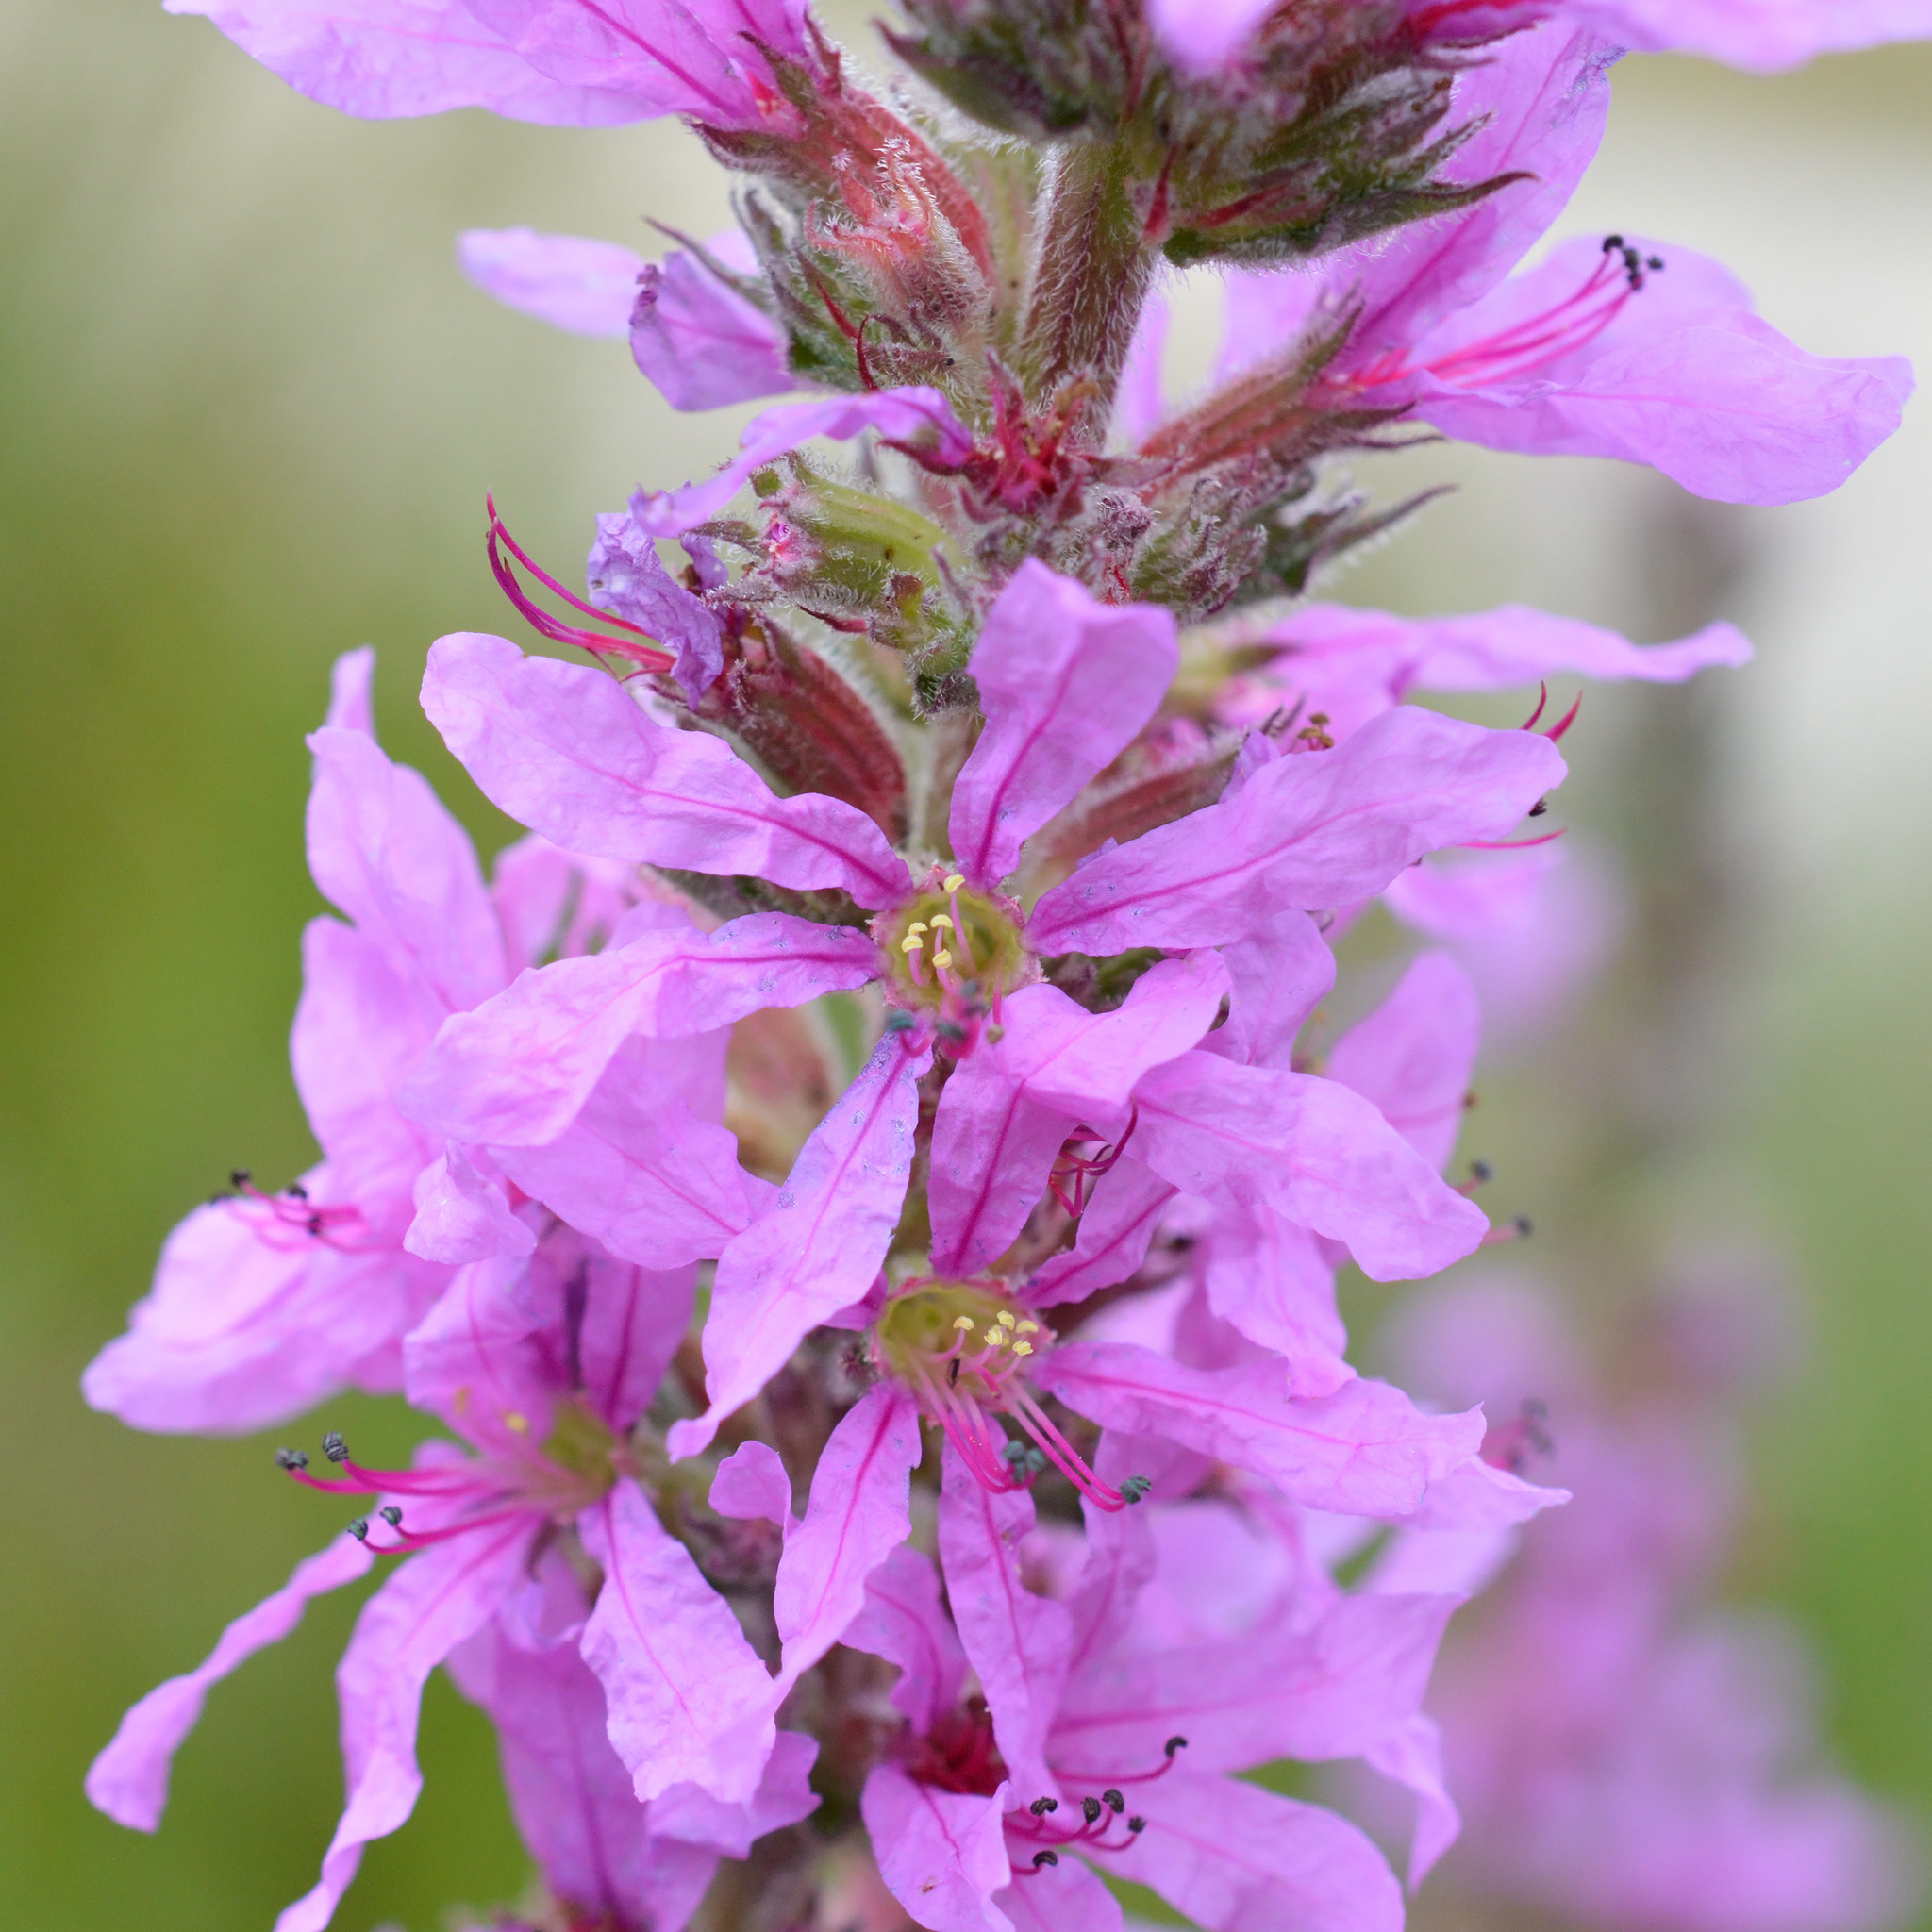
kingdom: Plantae
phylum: Tracheophyta
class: Magnoliopsida
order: Myrtales
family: Lythraceae
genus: Lythrum
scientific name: Lythrum salicaria
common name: Purple loosestrife
